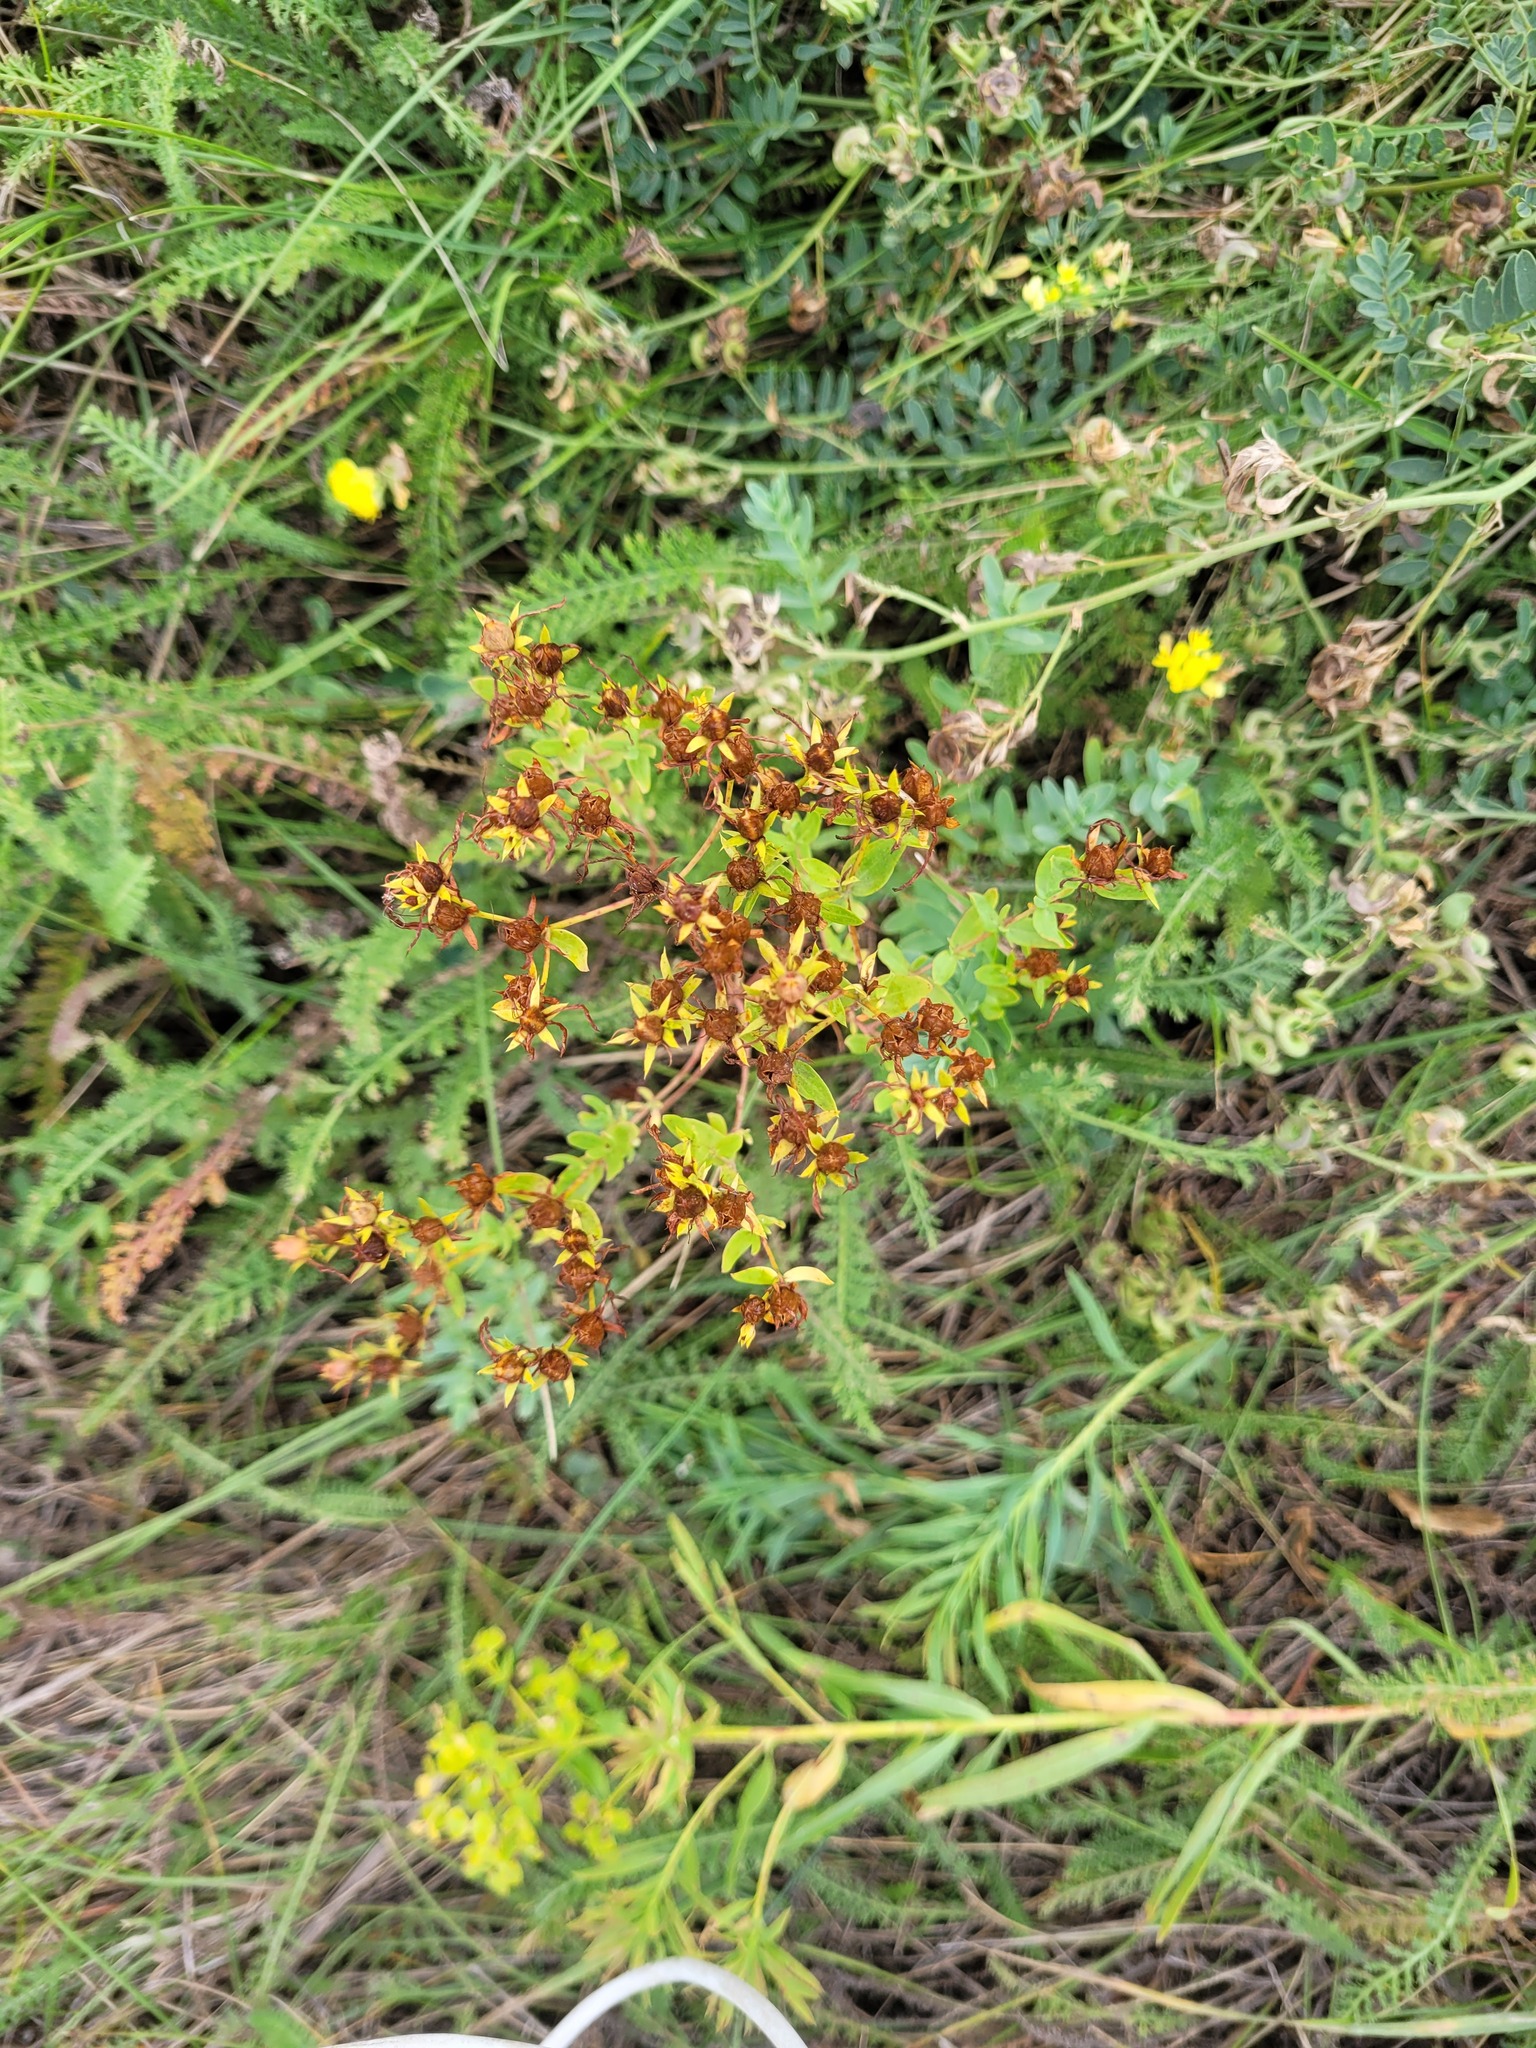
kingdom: Plantae
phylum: Tracheophyta
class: Magnoliopsida
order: Malpighiales
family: Hypericaceae
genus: Hypericum
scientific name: Hypericum perforatum
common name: Common st. johnswort
